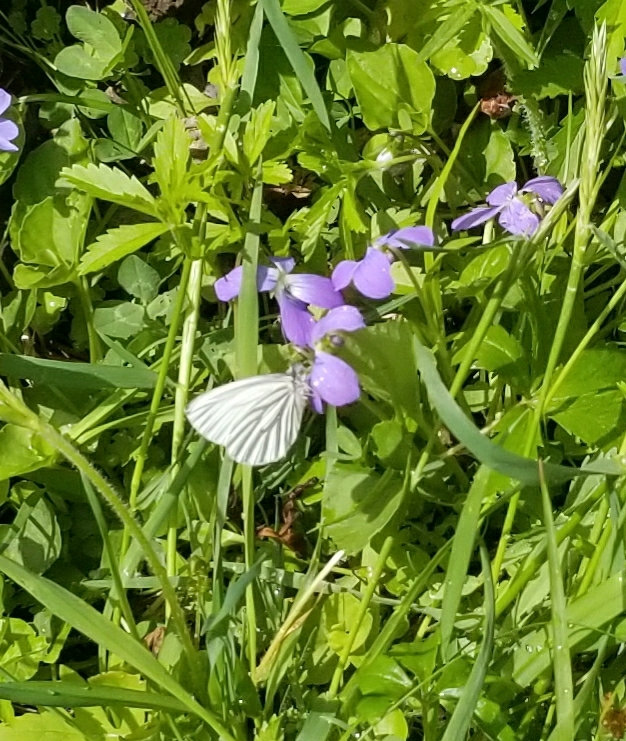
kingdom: Animalia
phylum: Arthropoda
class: Insecta
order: Lepidoptera
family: Pieridae
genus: Pieris
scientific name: Pieris oleracea
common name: Mustard white
